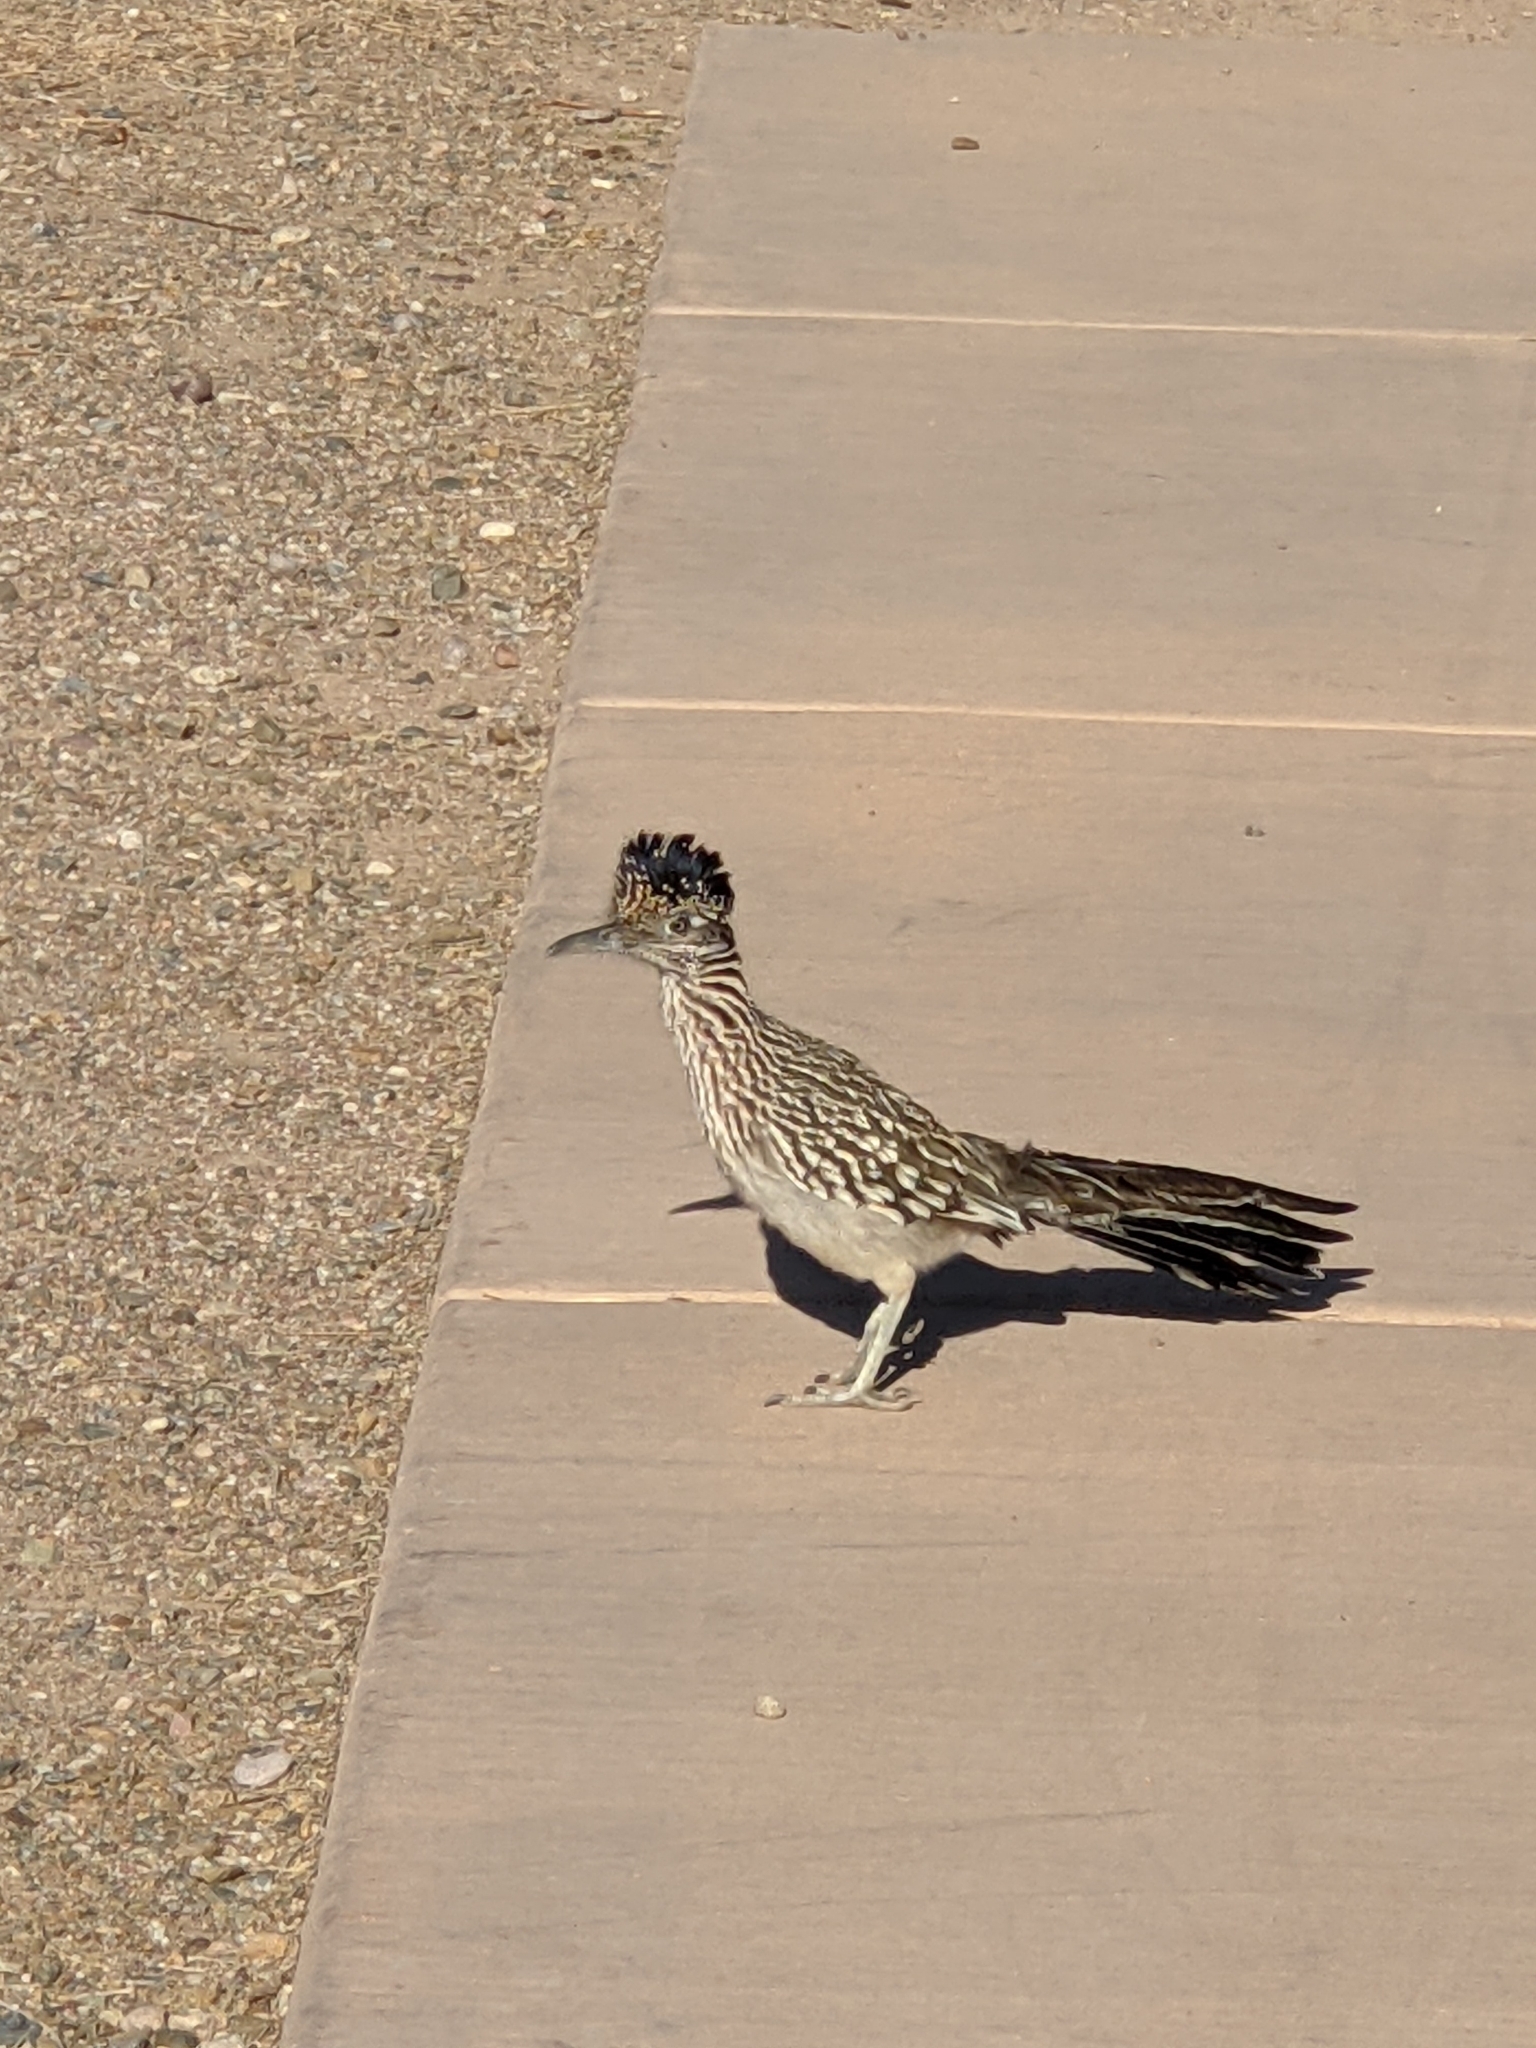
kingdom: Animalia
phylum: Chordata
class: Aves
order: Cuculiformes
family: Cuculidae
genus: Geococcyx
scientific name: Geococcyx californianus
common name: Greater roadrunner
